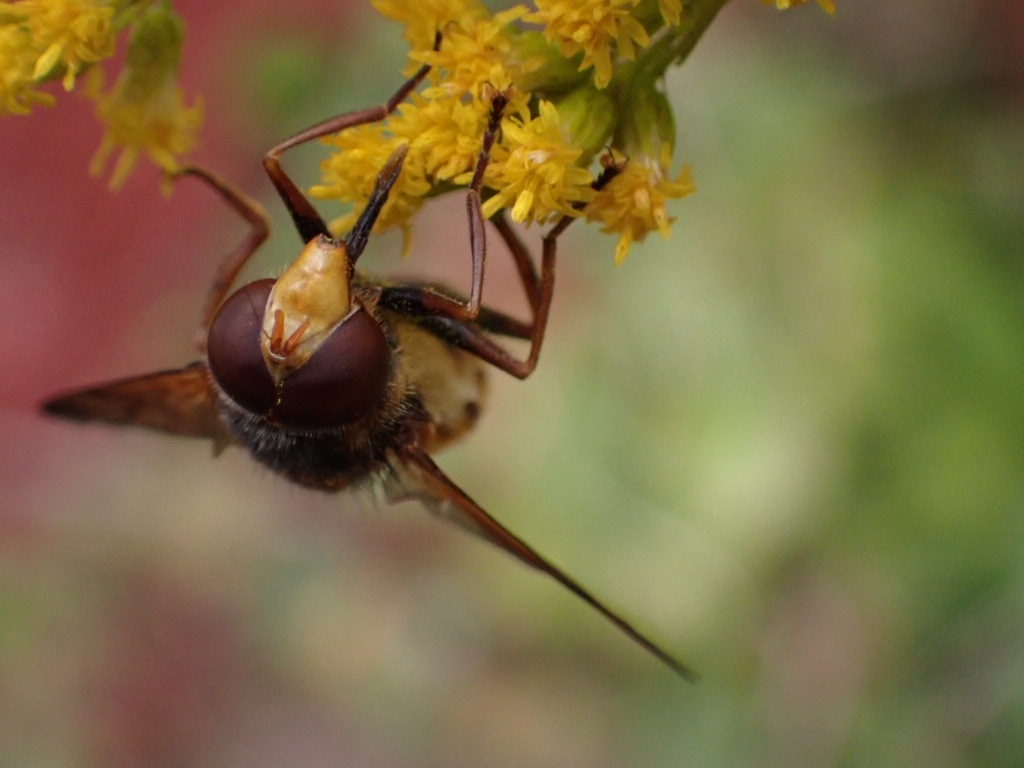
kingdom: Animalia
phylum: Arthropoda
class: Insecta
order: Diptera
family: Syrphidae
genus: Volucella
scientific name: Volucella inanis
